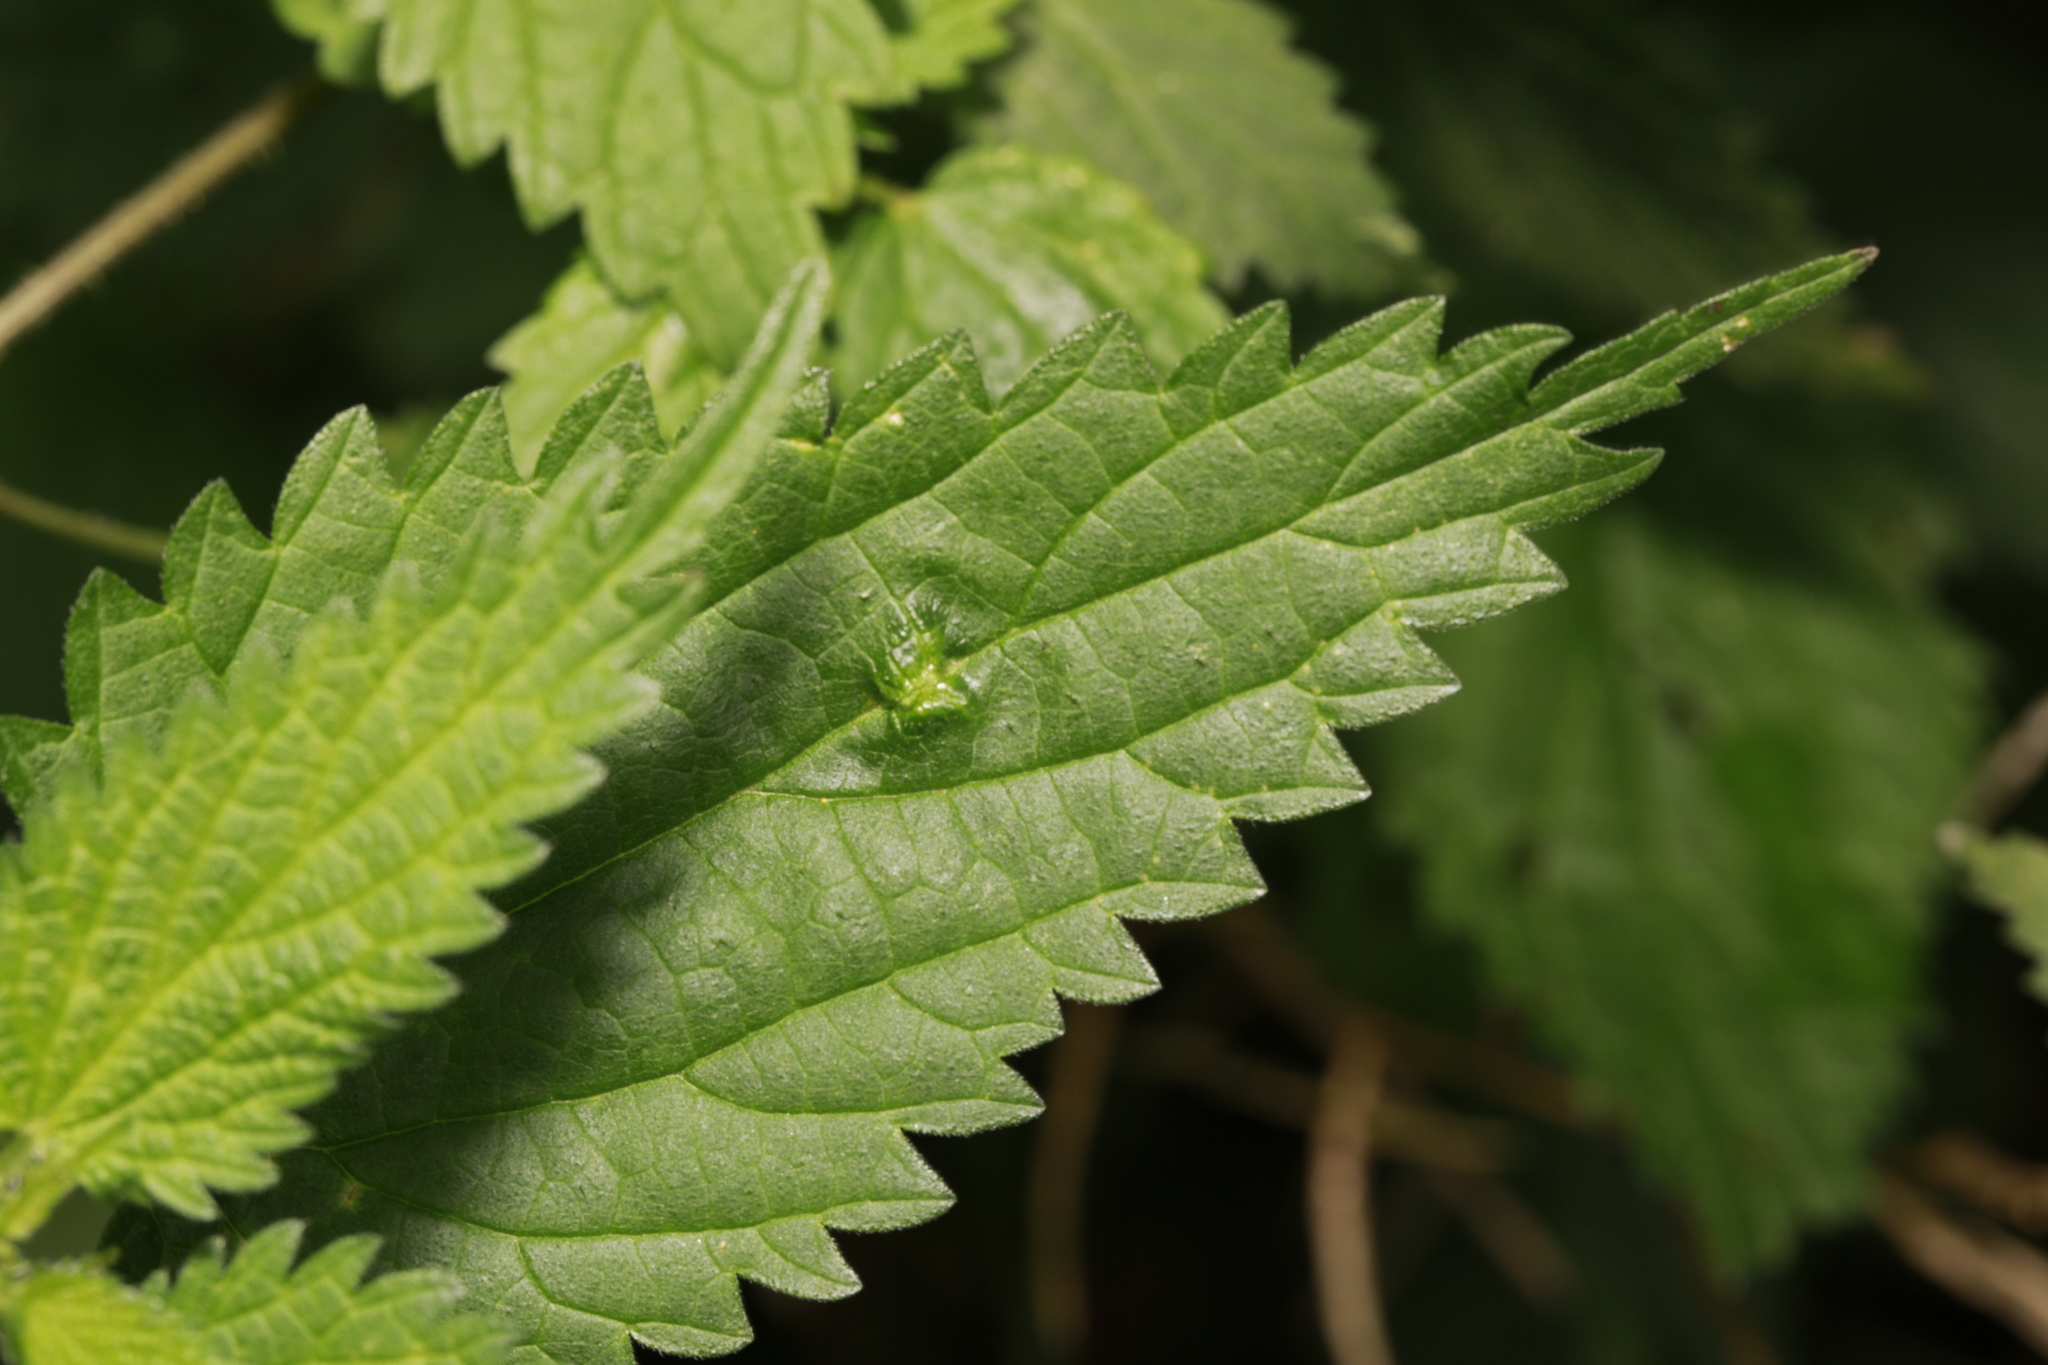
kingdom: Animalia
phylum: Arthropoda
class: Insecta
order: Diptera
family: Cecidomyiidae
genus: Dasineura
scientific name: Dasineura urticae
